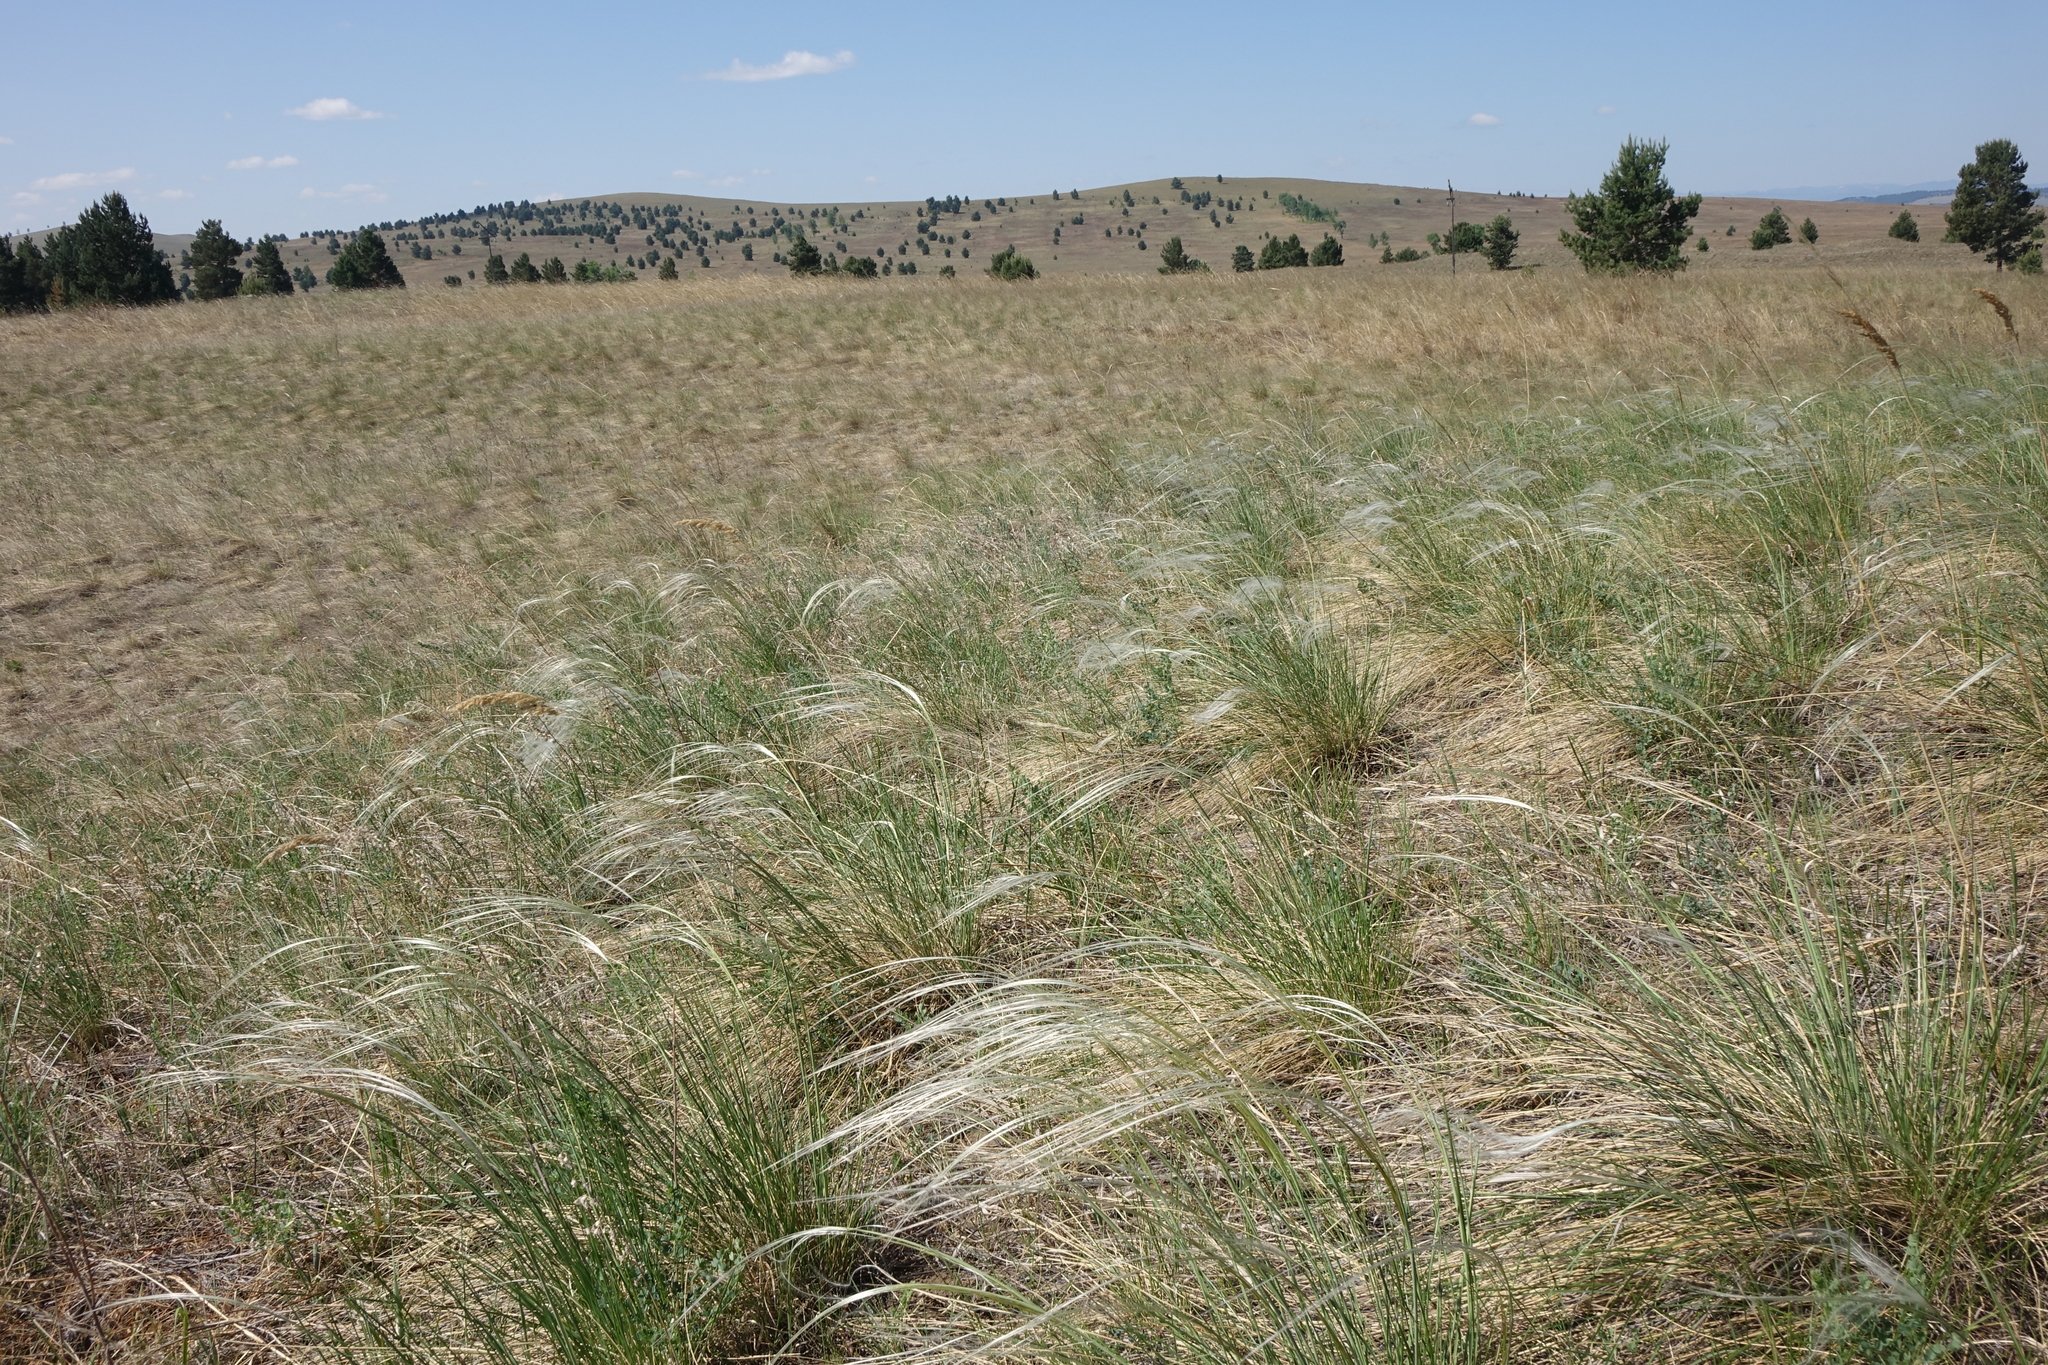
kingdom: Plantae
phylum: Tracheophyta
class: Liliopsida
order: Poales
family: Poaceae
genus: Stipa
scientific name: Stipa pennata
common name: European feather grass
